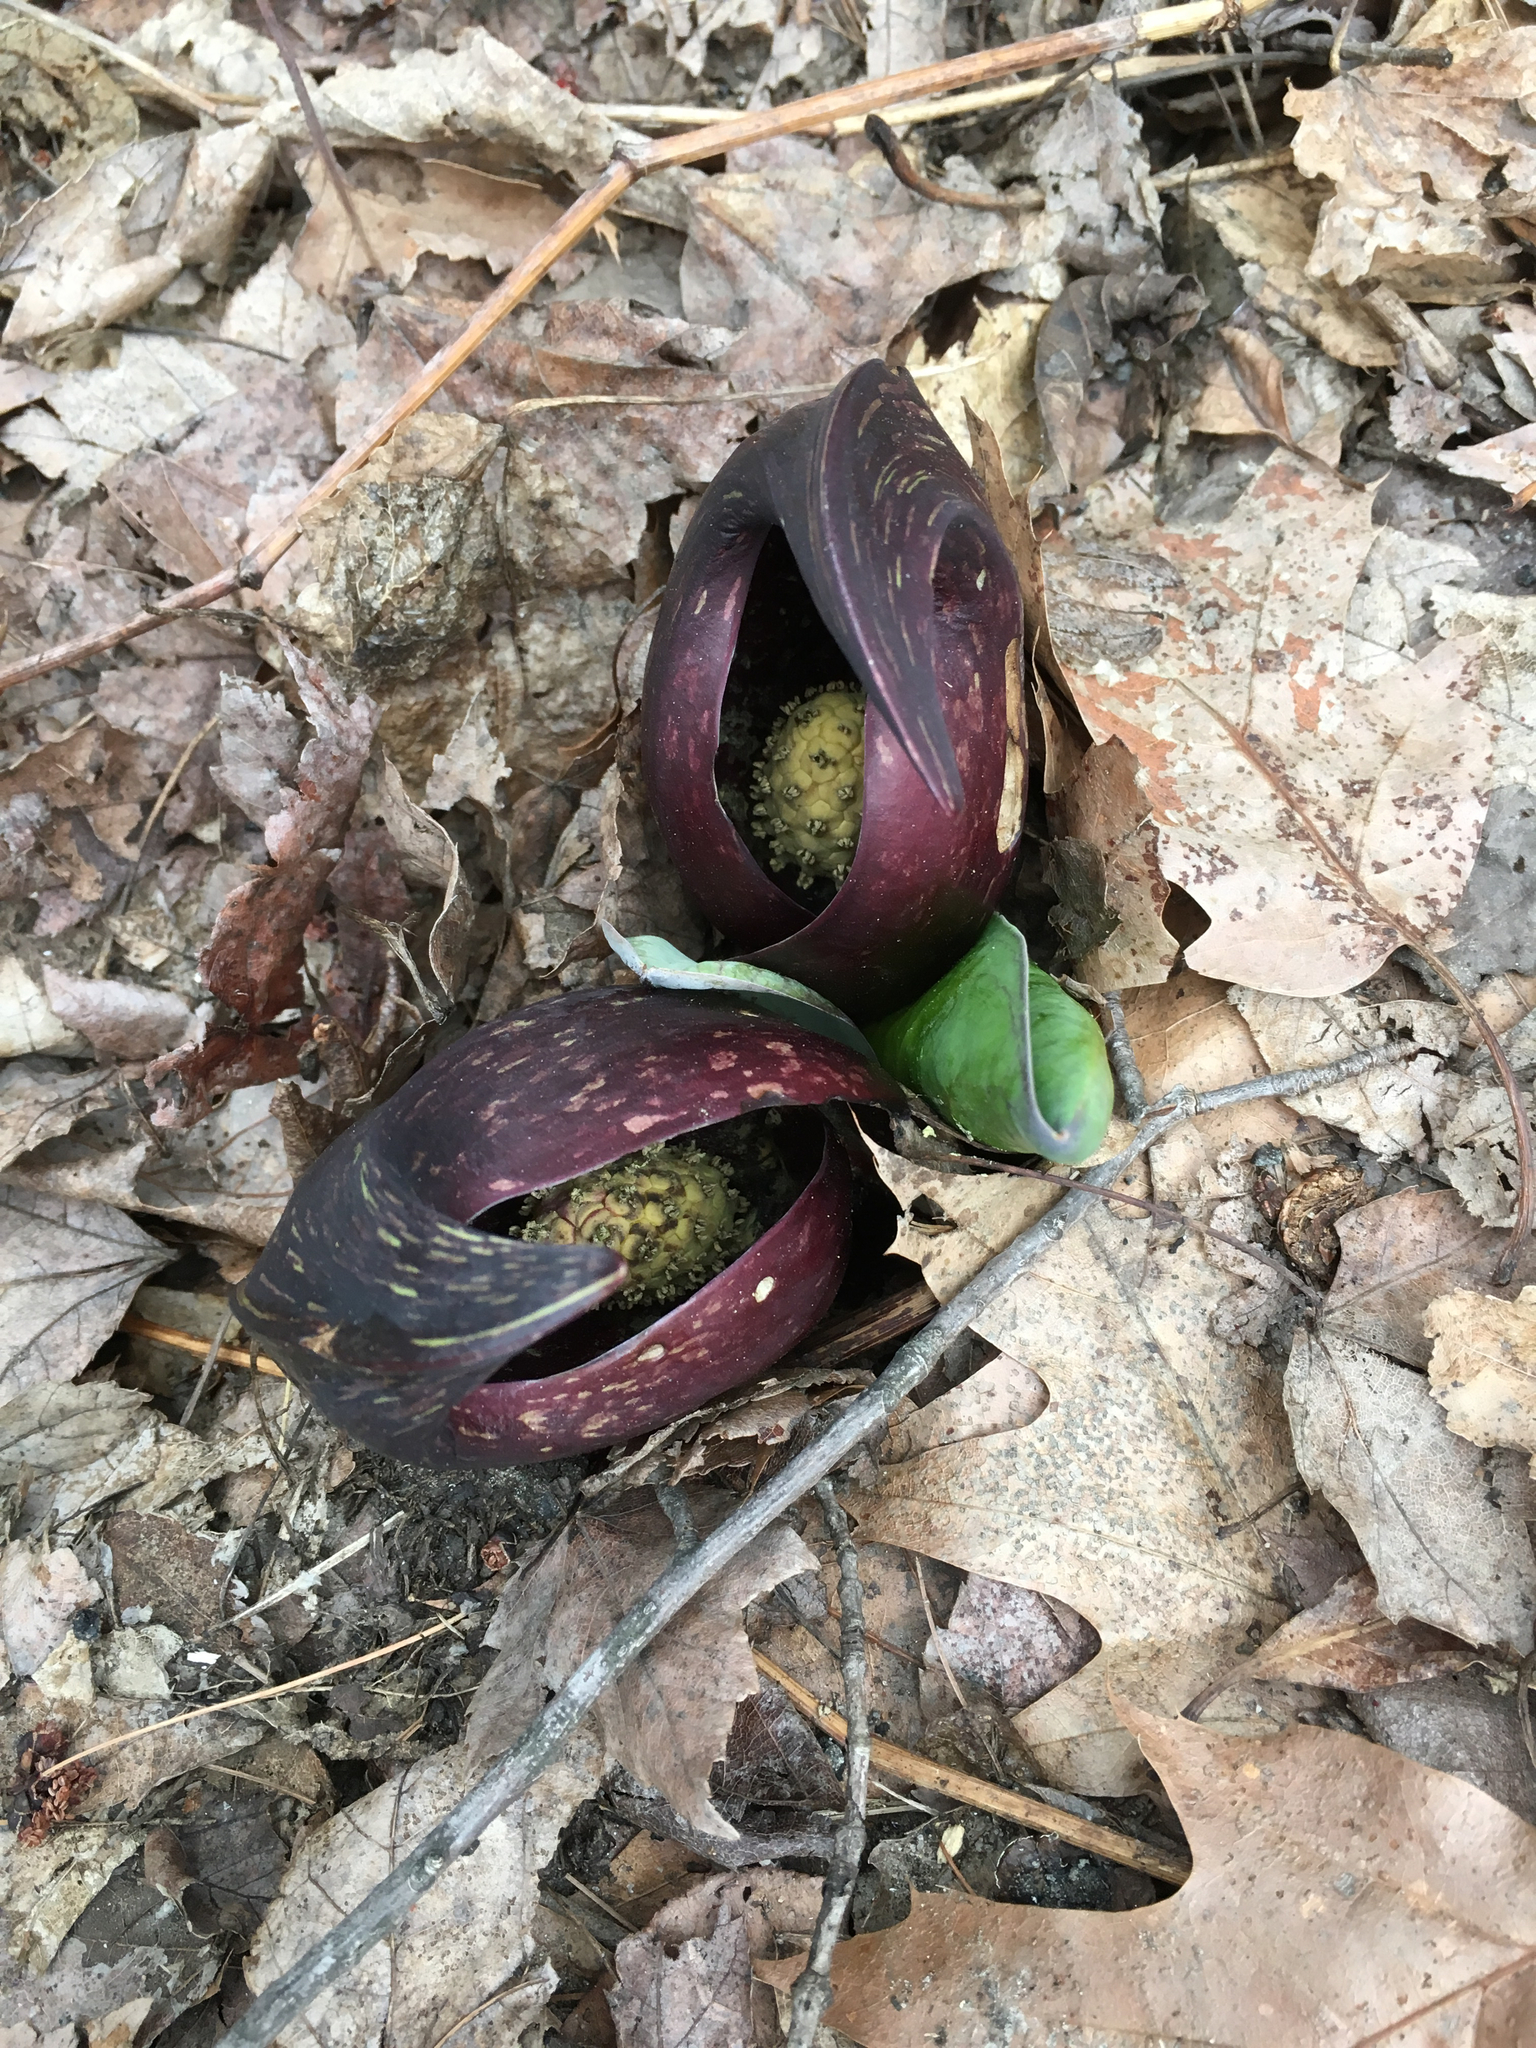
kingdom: Plantae
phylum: Tracheophyta
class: Liliopsida
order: Alismatales
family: Araceae
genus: Symplocarpus
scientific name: Symplocarpus foetidus
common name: Eastern skunk cabbage
